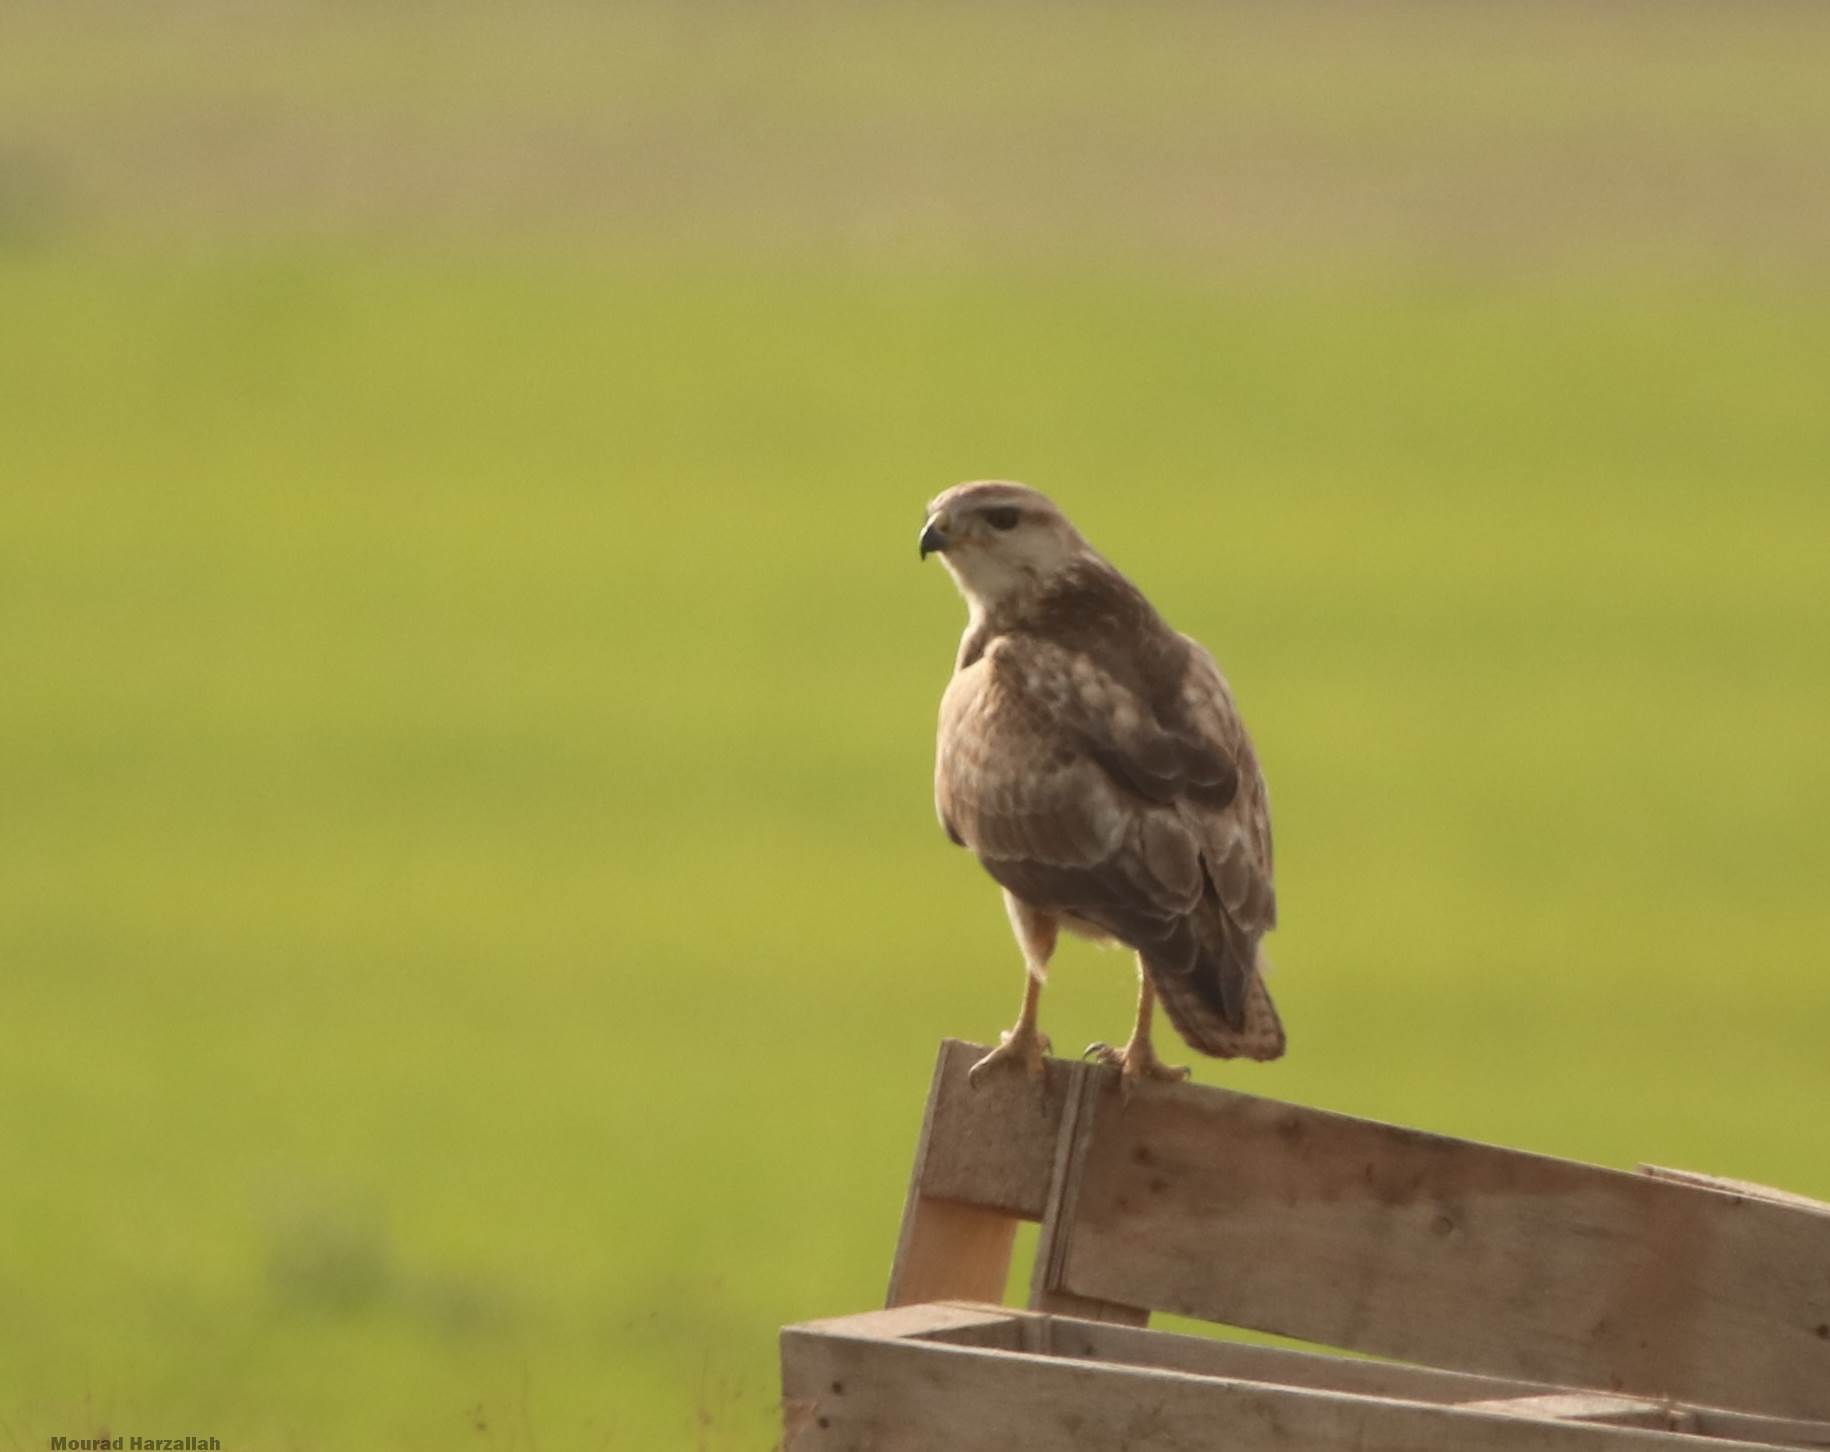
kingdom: Animalia
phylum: Chordata
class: Aves
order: Accipitriformes
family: Accipitridae
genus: Buteo
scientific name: Buteo rufinus
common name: Long-legged buzzard
